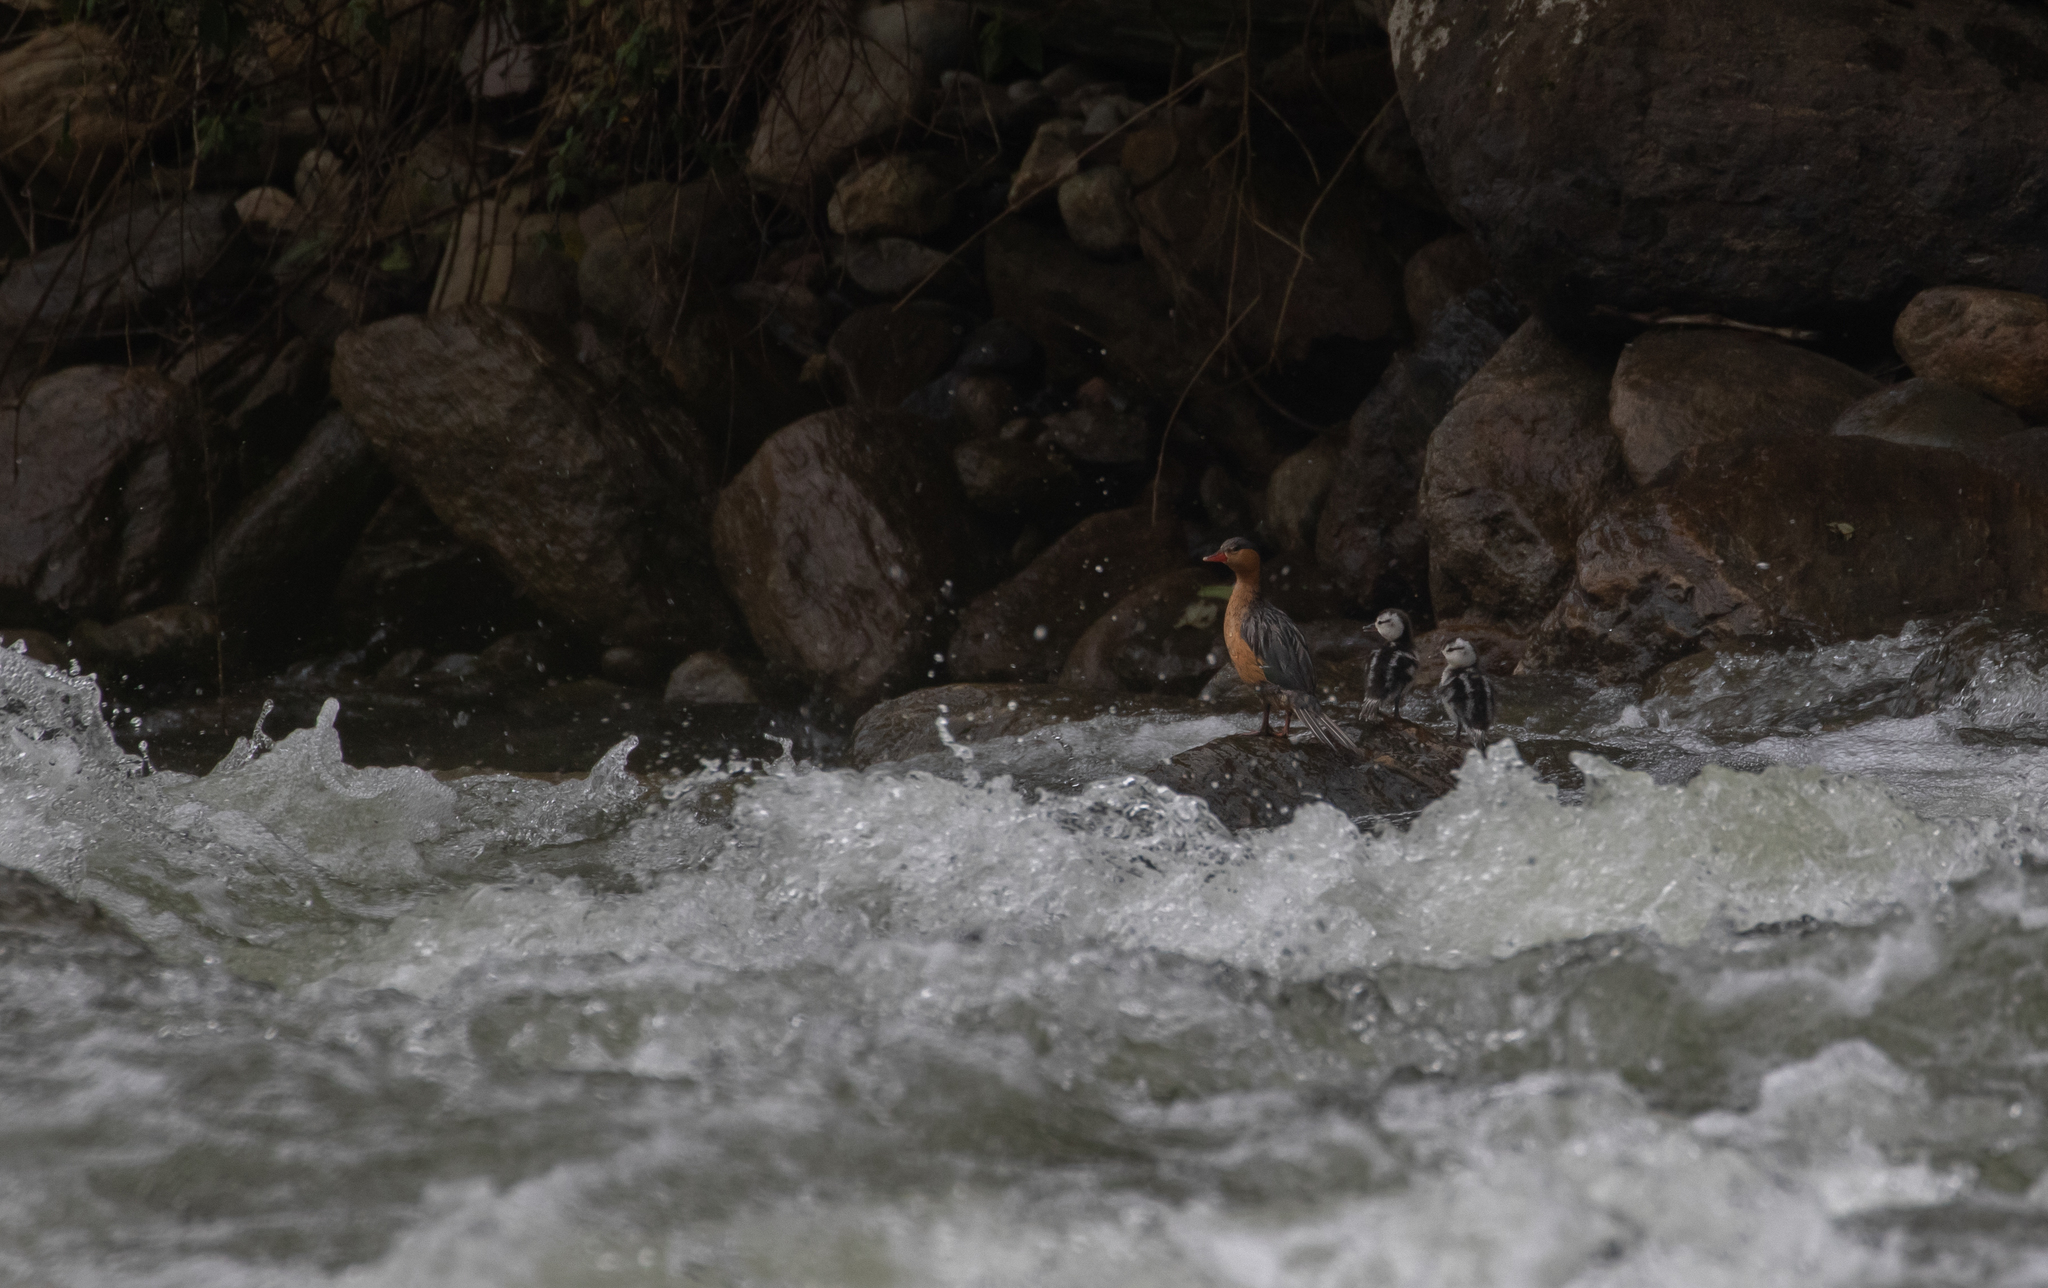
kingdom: Animalia
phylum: Chordata
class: Aves
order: Anseriformes
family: Anatidae
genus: Merganetta
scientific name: Merganetta armata
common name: Torrent duck
